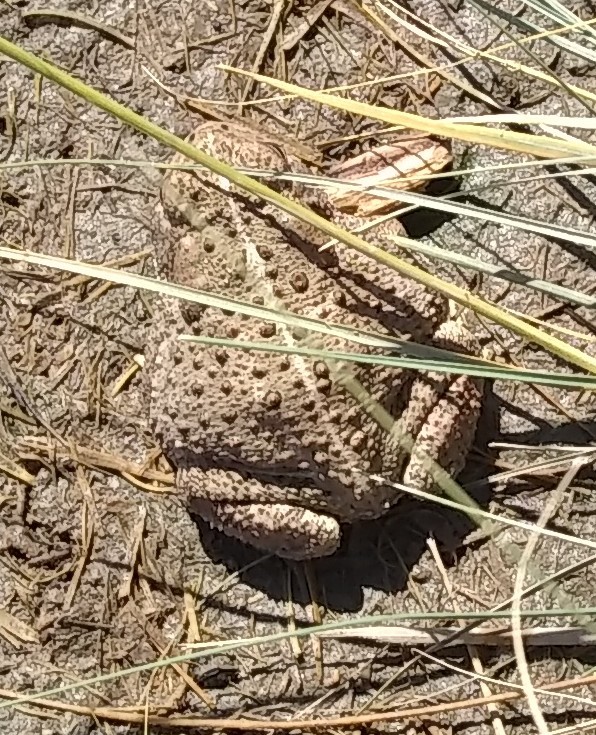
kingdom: Animalia
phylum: Chordata
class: Amphibia
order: Anura
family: Bufonidae
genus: Anaxyrus
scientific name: Anaxyrus woodhousii
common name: Woodhouse's toad
